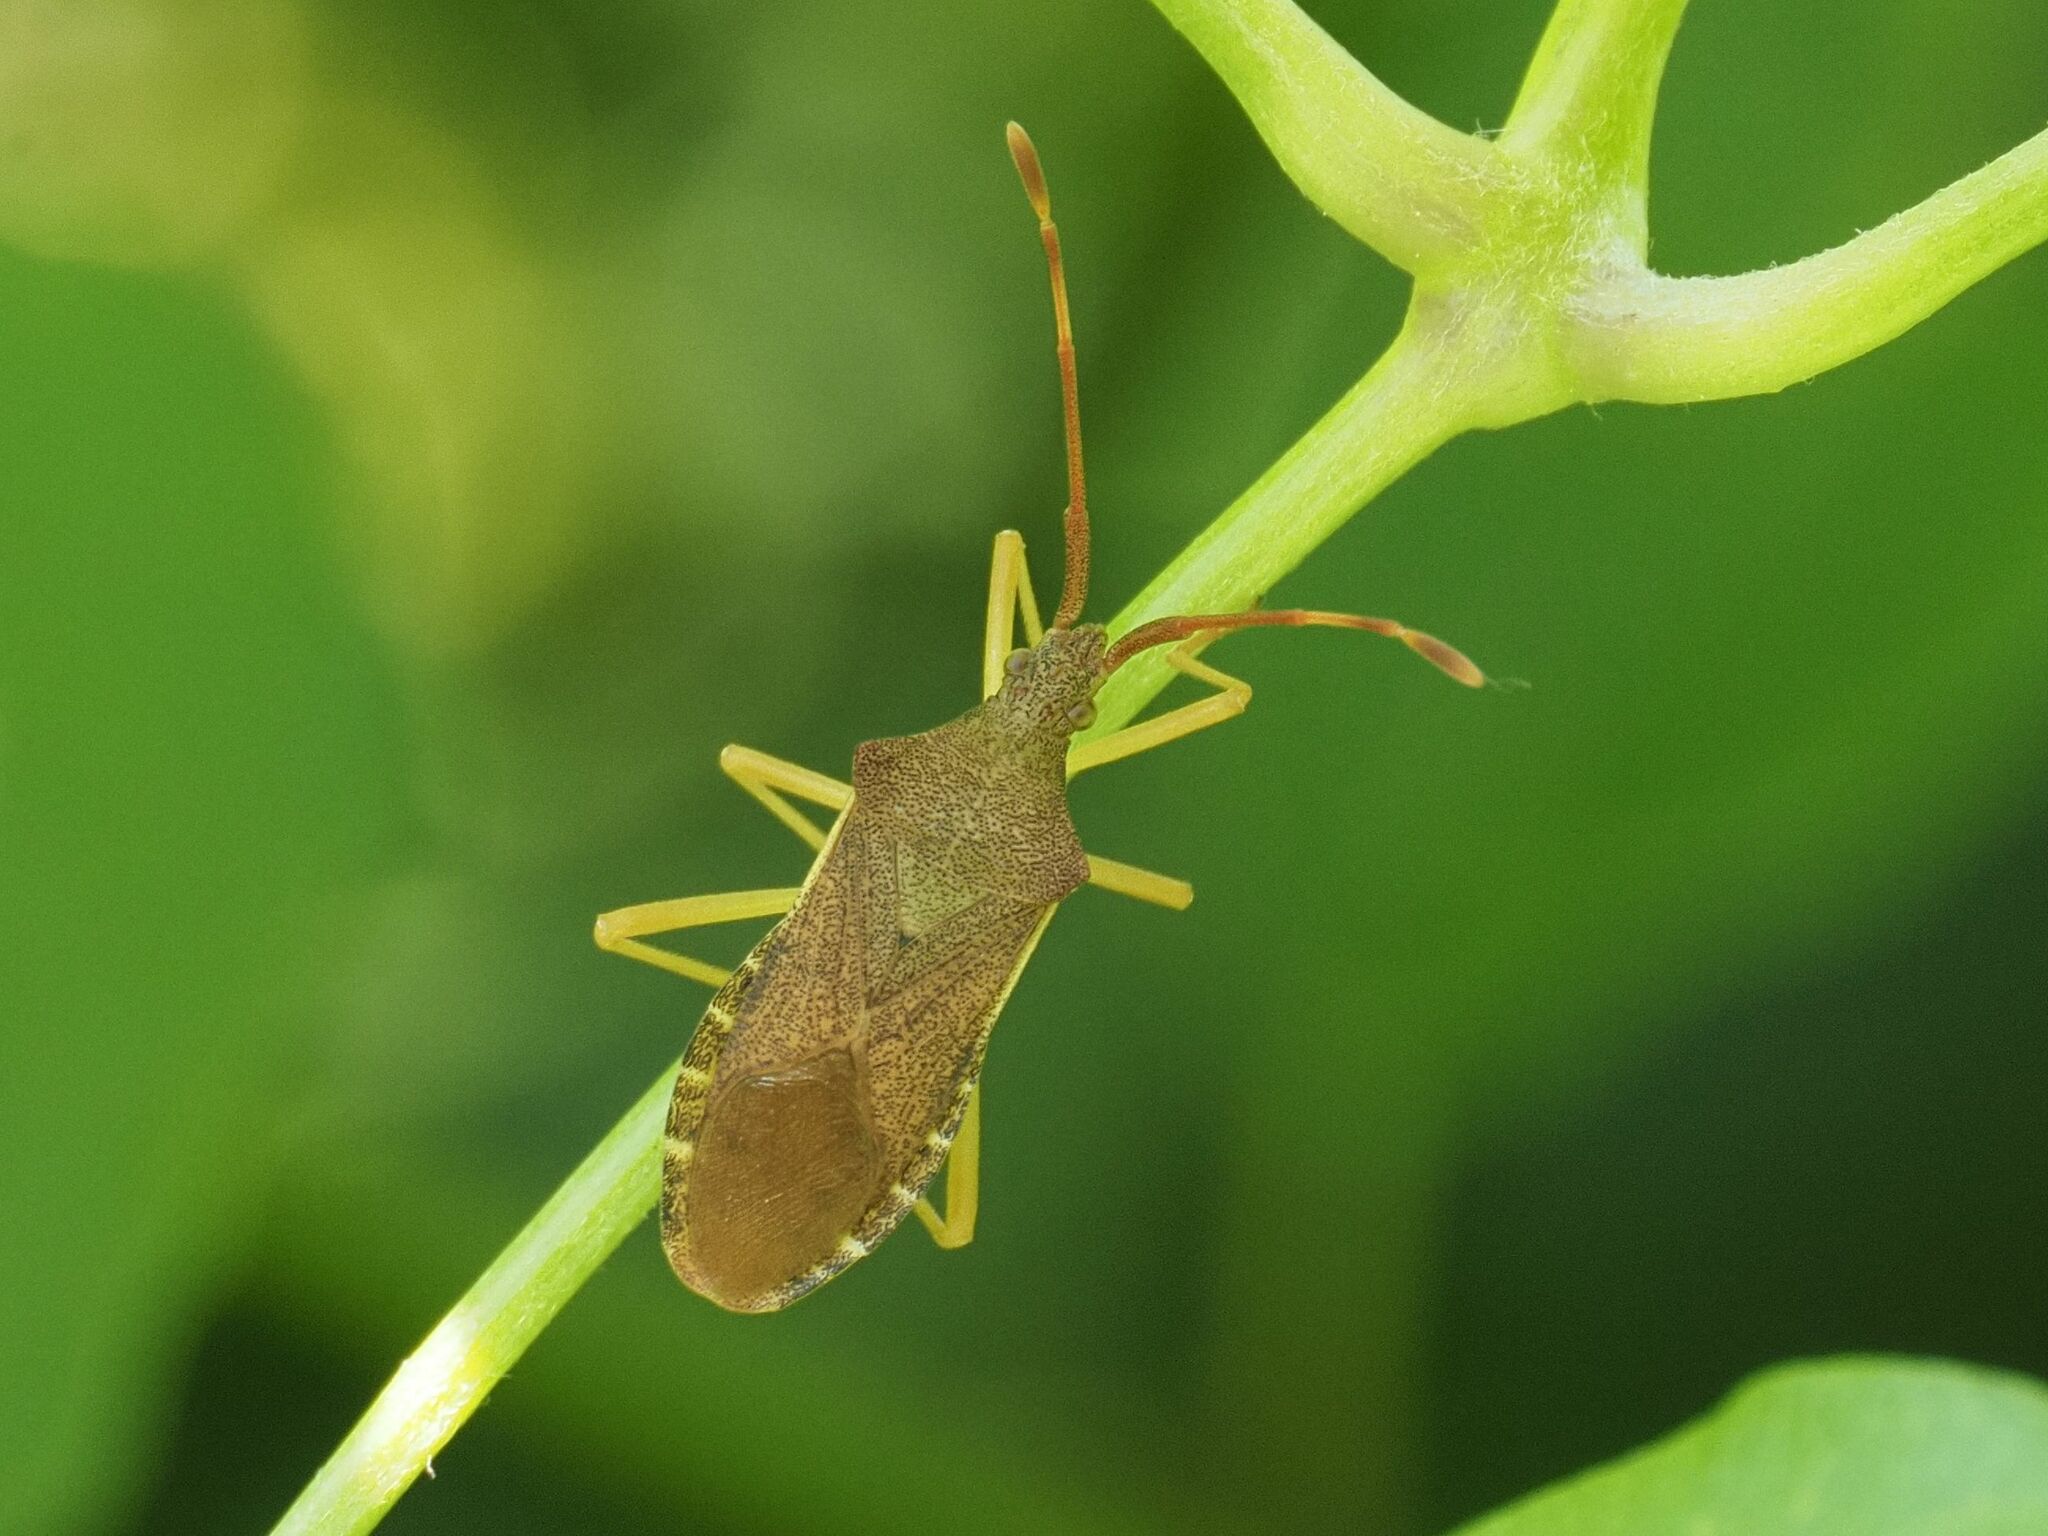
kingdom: Animalia
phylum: Arthropoda
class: Insecta
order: Hemiptera
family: Coreidae
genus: Gonocerus
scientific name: Gonocerus acuteangulatus
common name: Box bug
